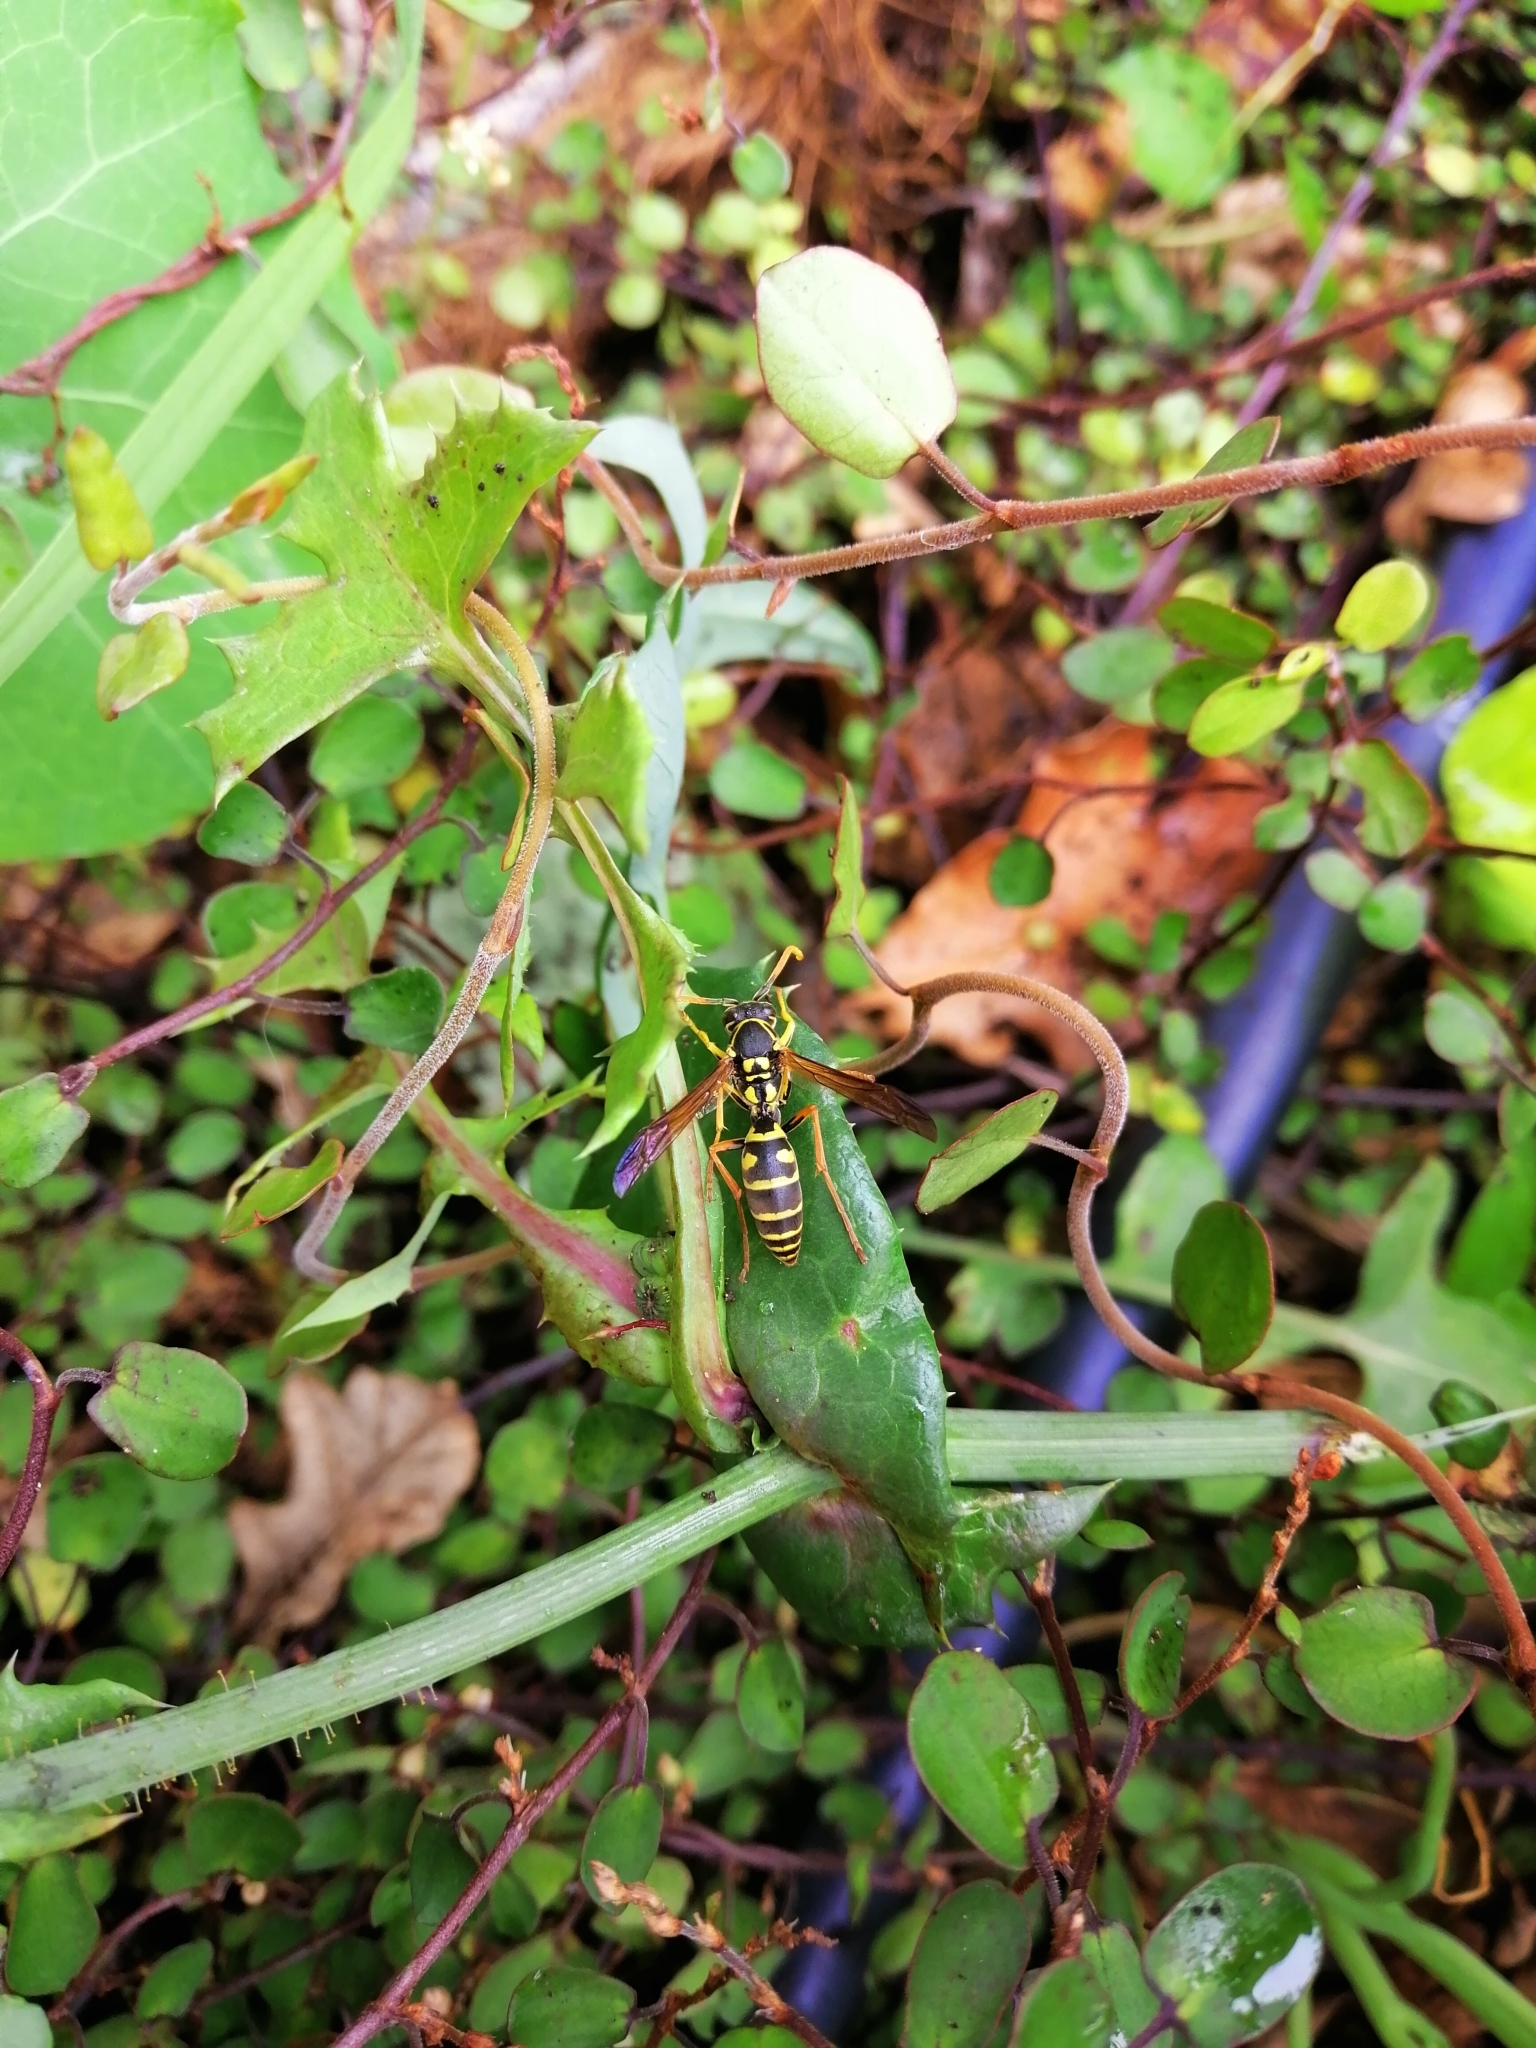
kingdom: Animalia
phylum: Arthropoda
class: Insecta
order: Hymenoptera
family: Eumenidae
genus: Polistes
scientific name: Polistes chinensis
